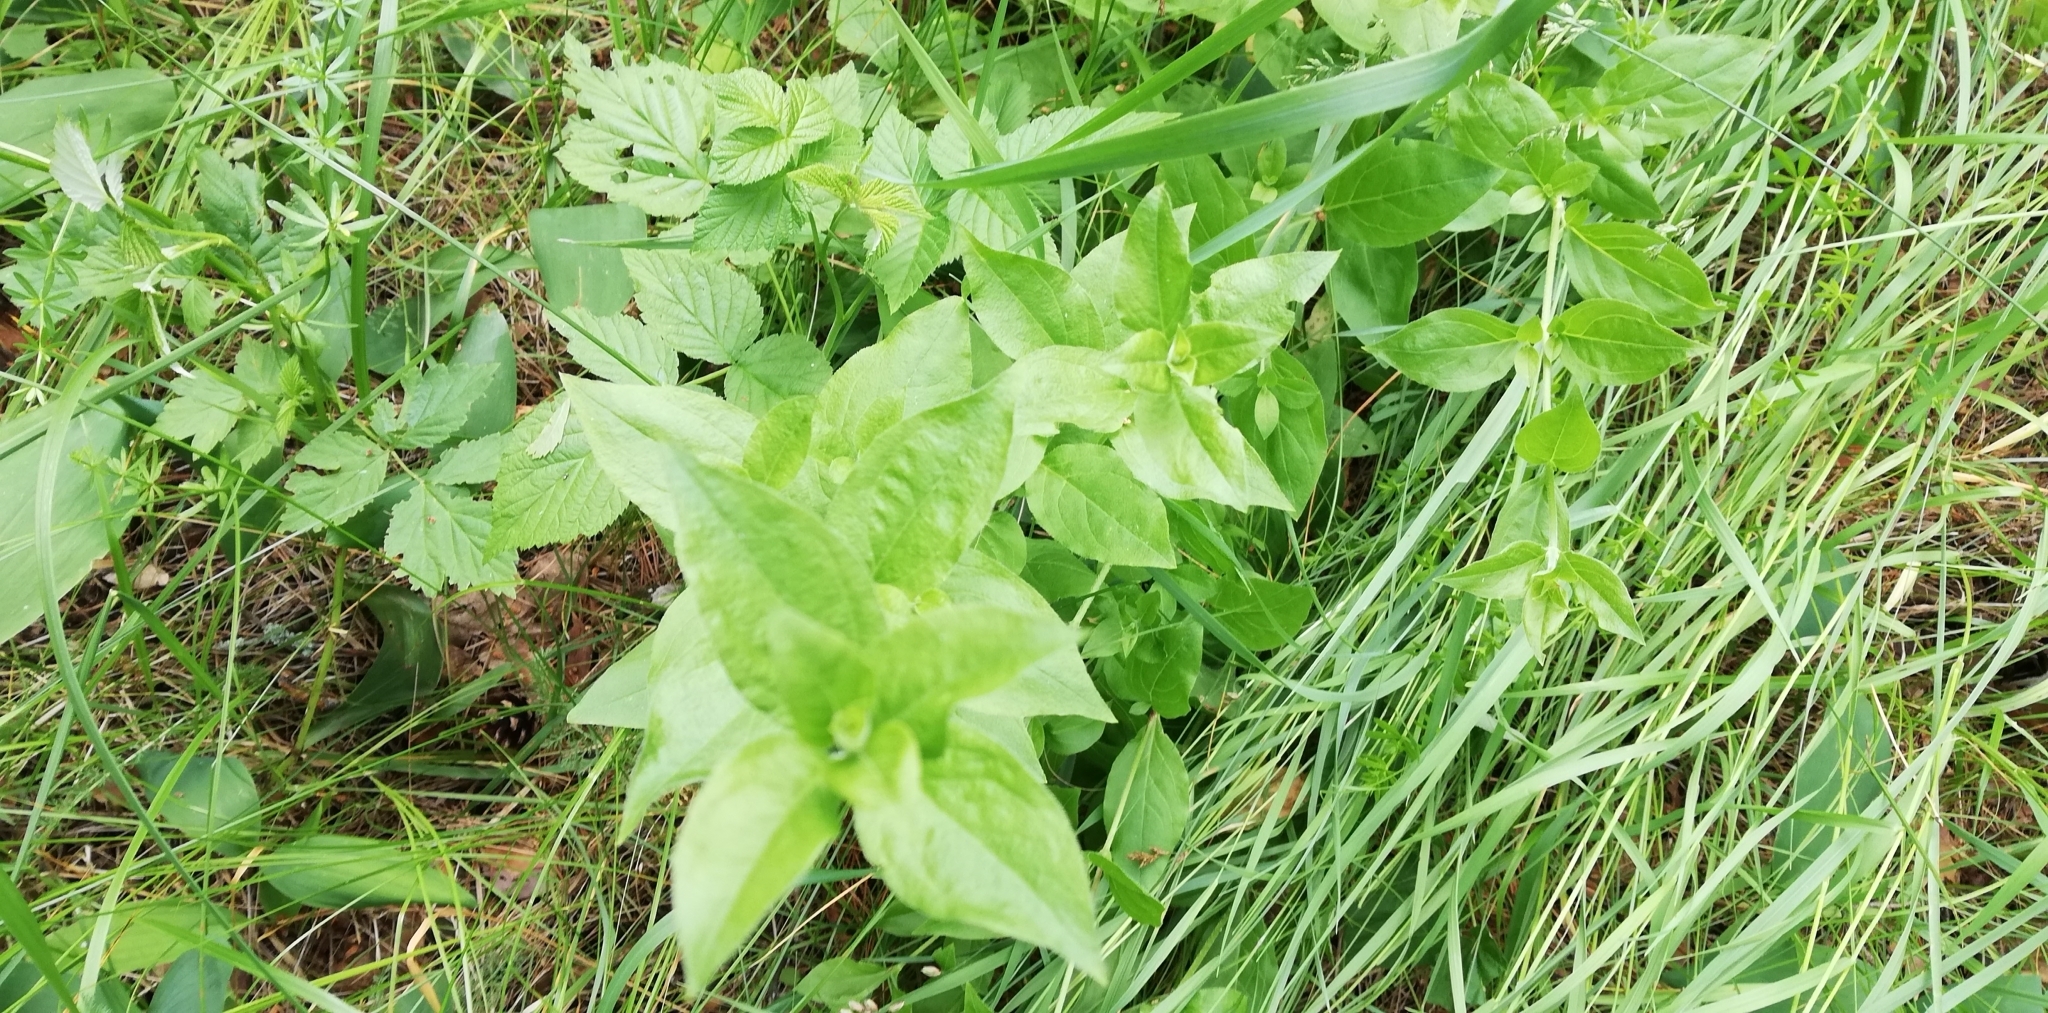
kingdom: Plantae
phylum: Tracheophyta
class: Magnoliopsida
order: Caryophyllales
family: Caryophyllaceae
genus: Stellaria
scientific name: Stellaria aquatica
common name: Water chickweed
